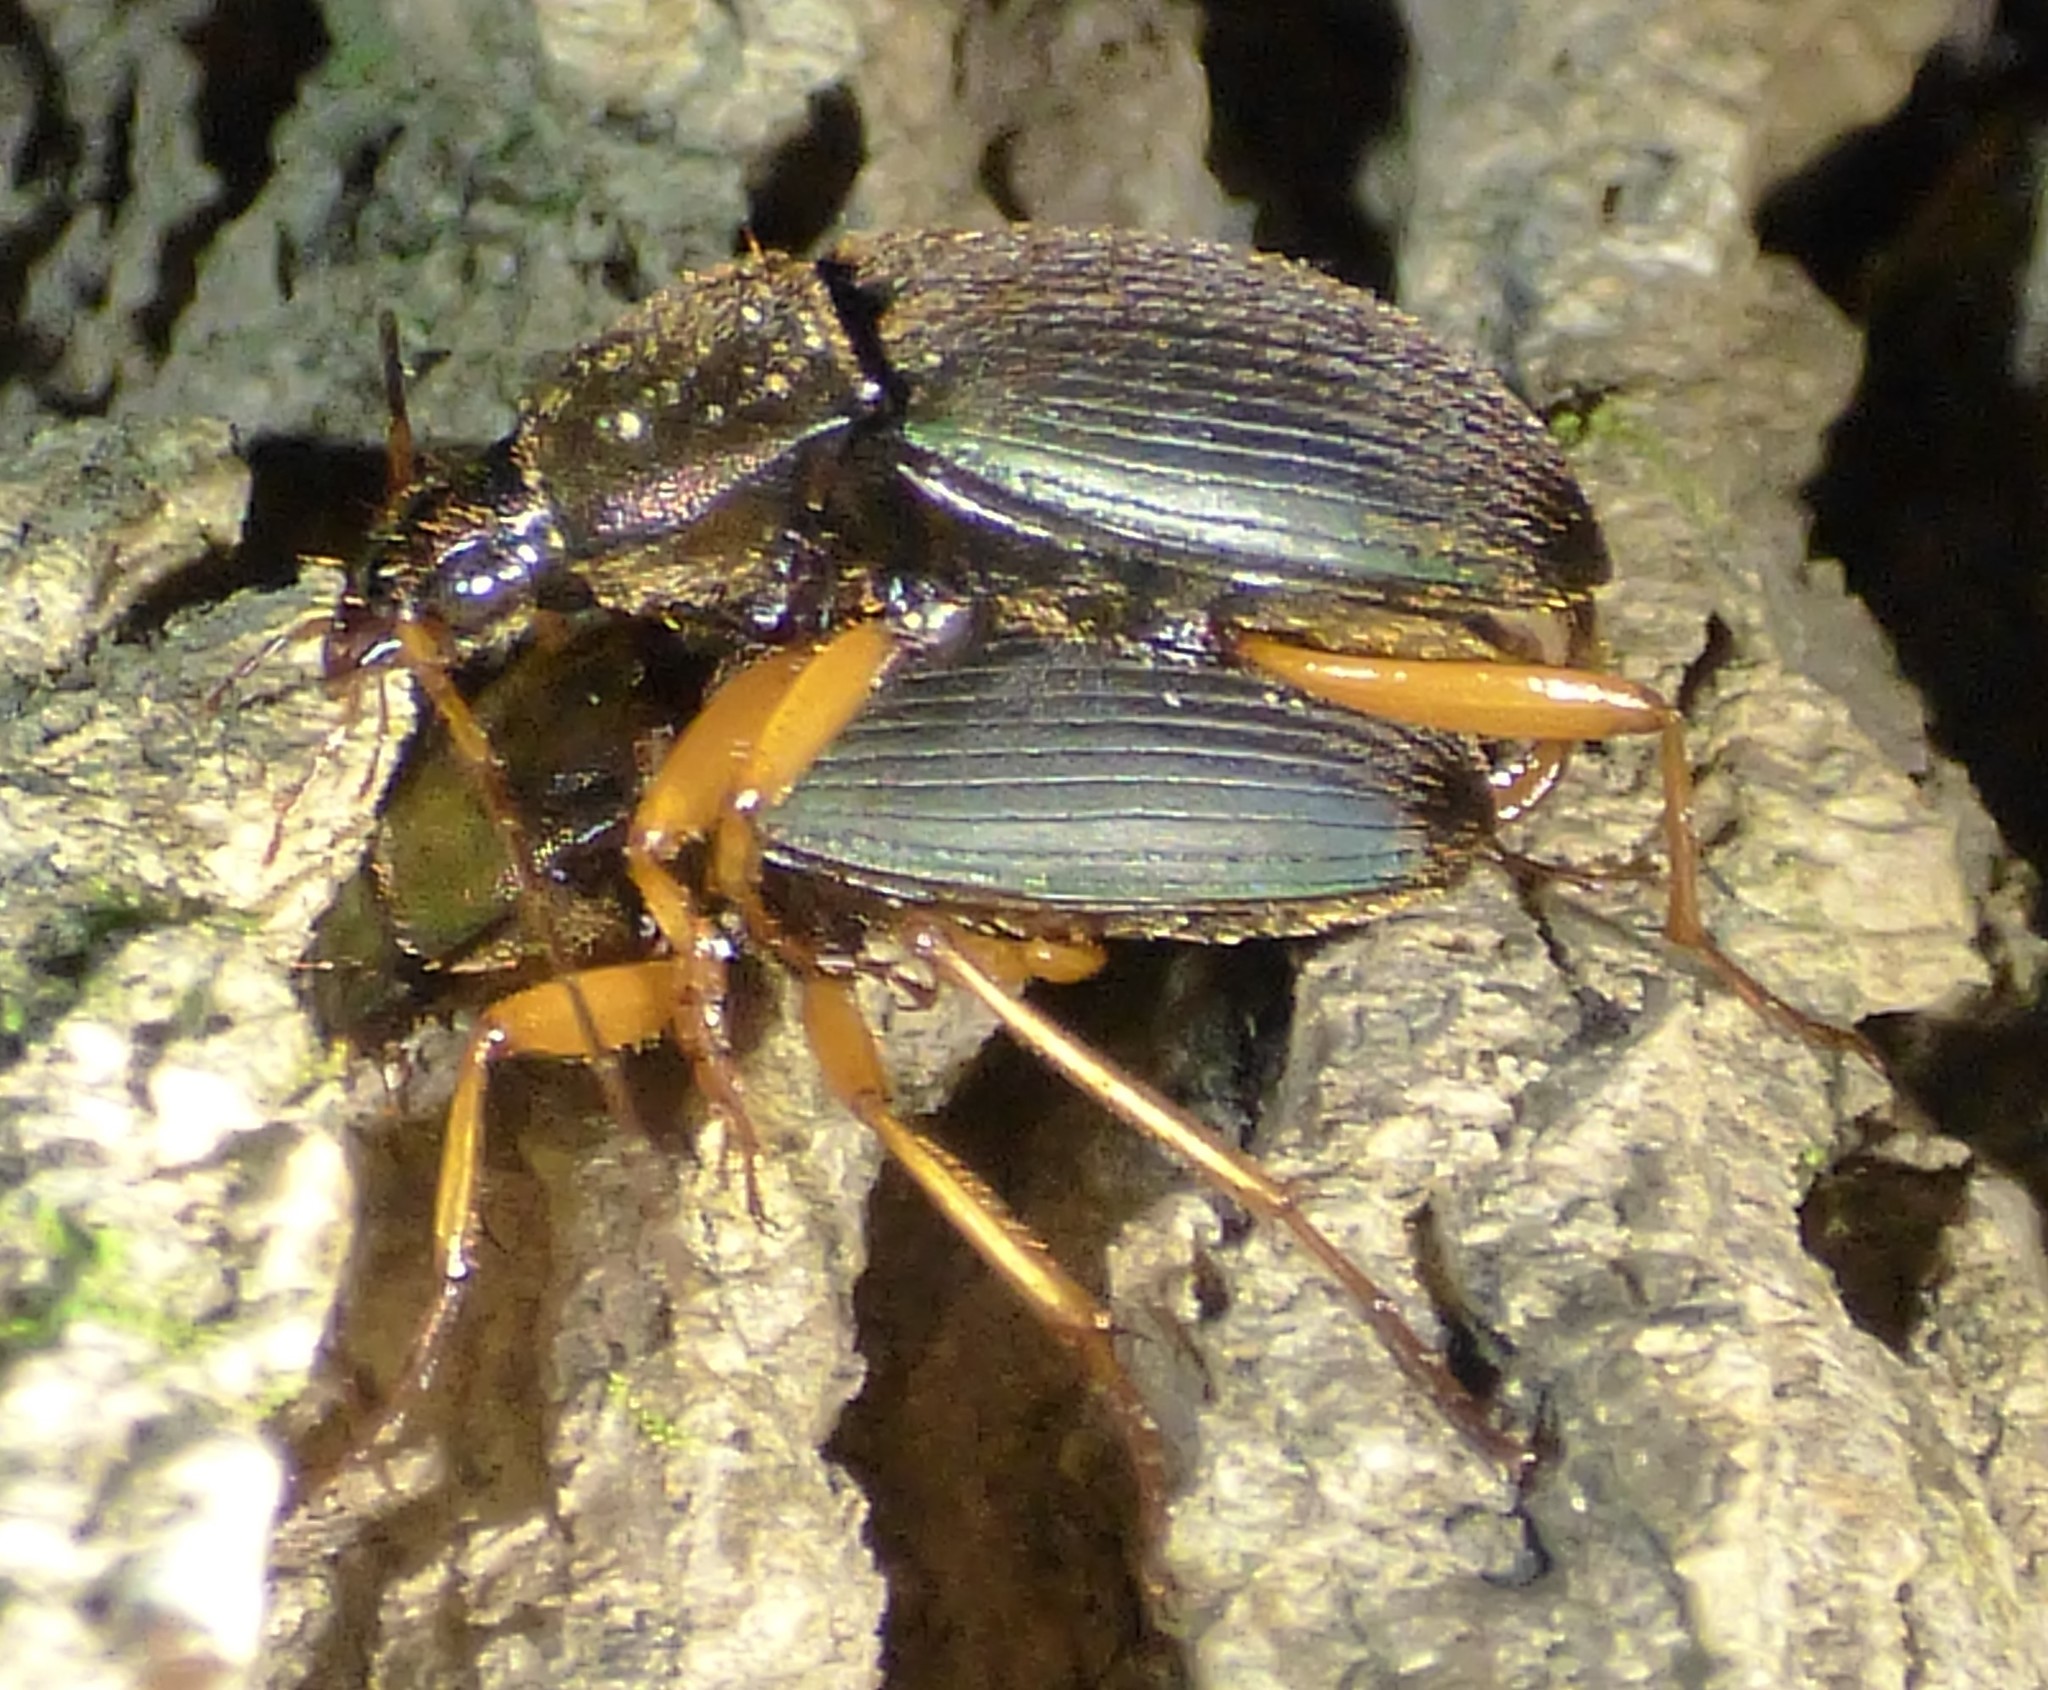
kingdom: Animalia
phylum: Arthropoda
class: Insecta
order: Coleoptera
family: Carabidae
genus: Chlaenius
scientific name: Chlaenius aestivus
